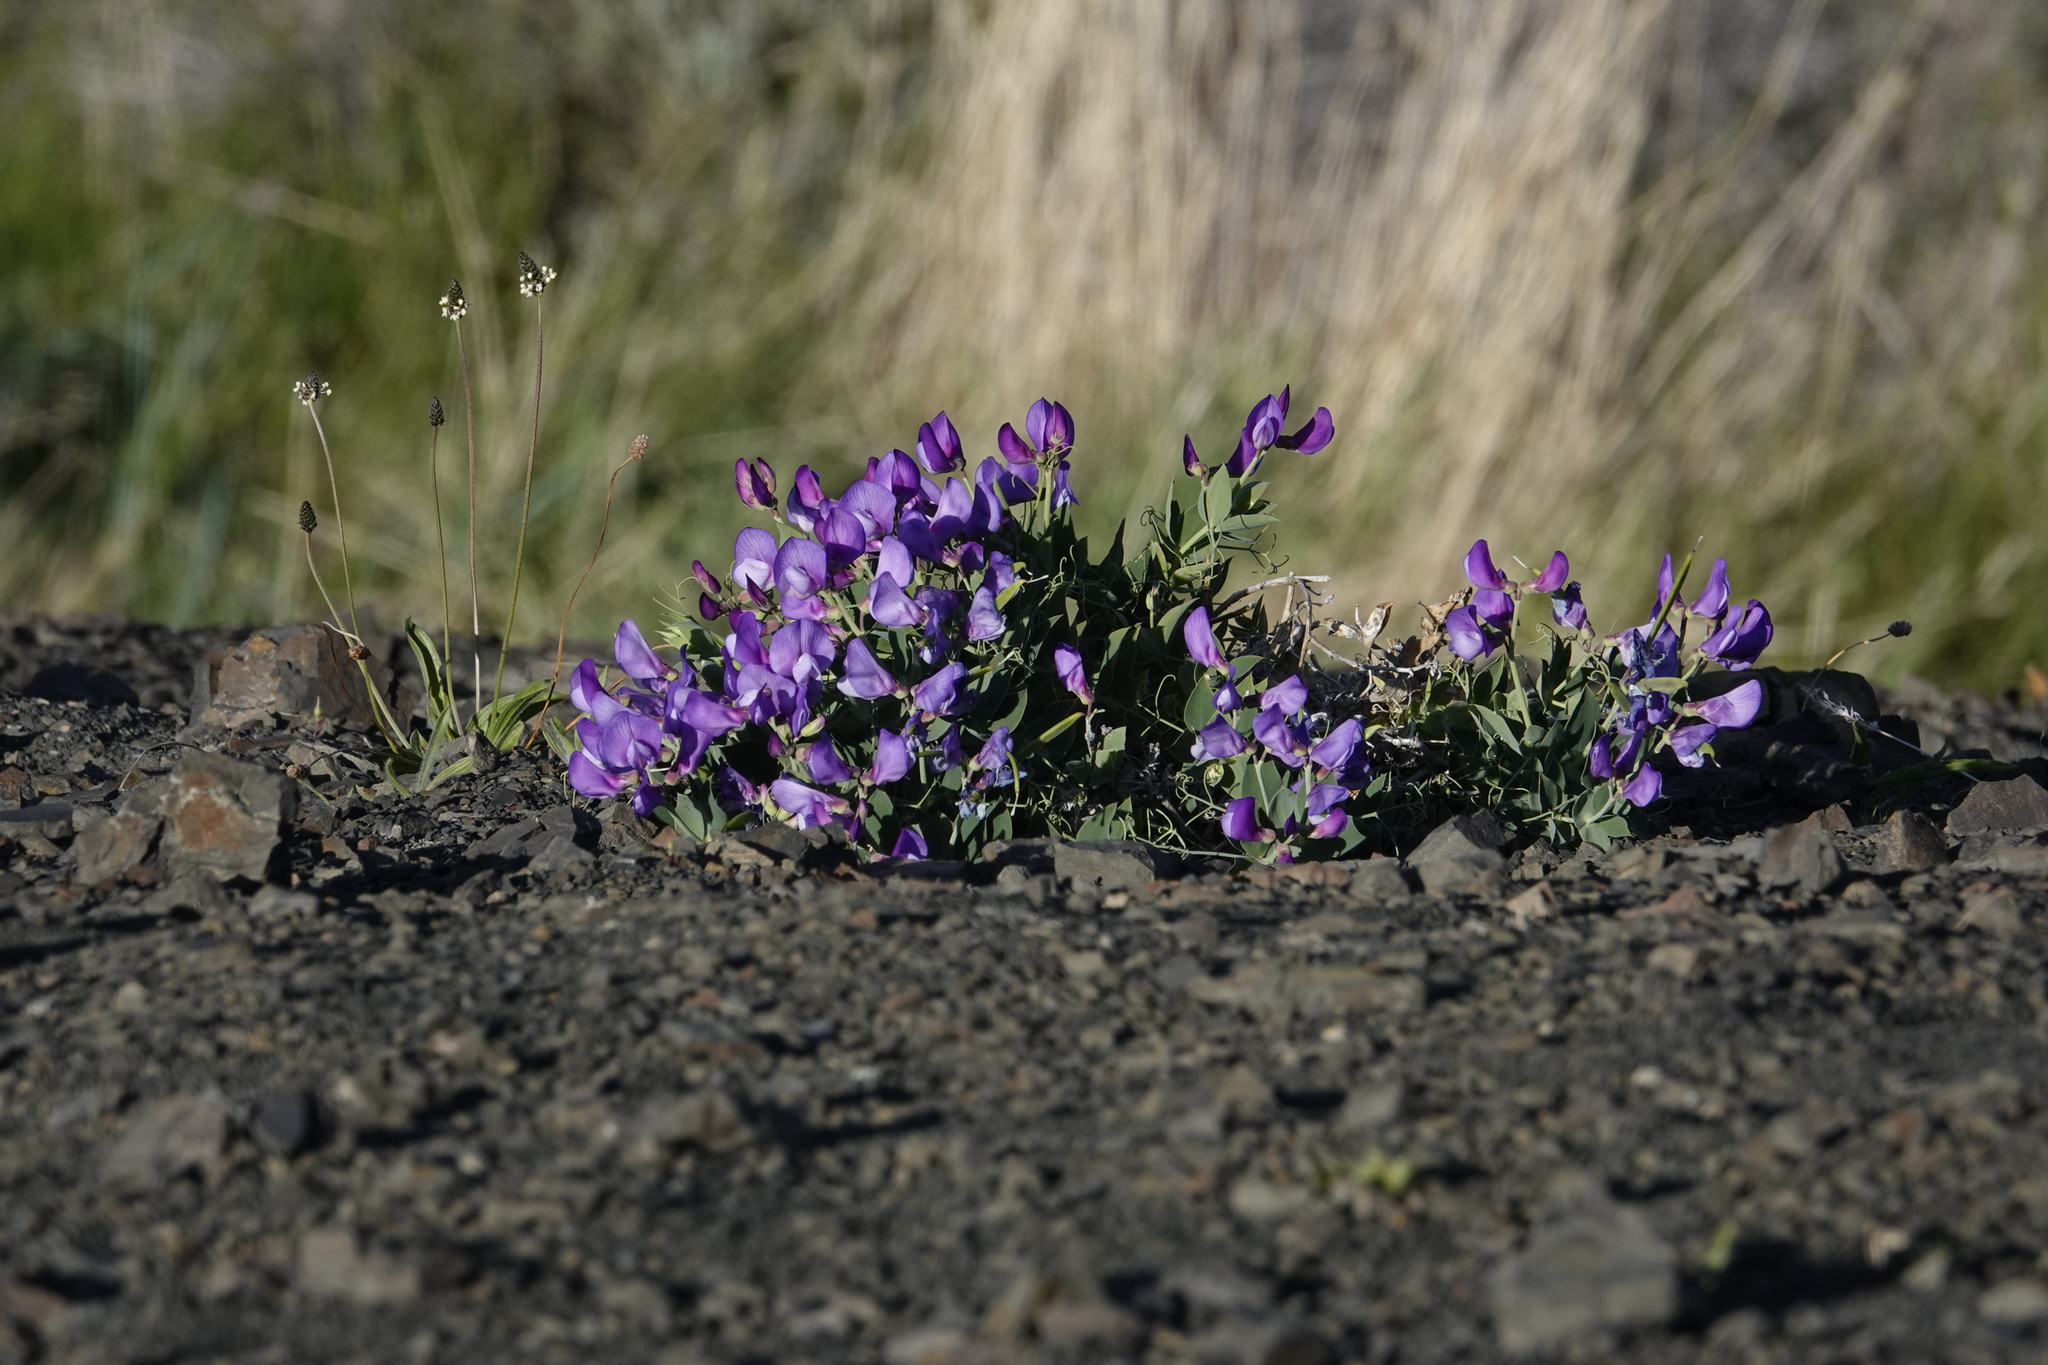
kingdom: Plantae
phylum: Tracheophyta
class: Magnoliopsida
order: Fabales
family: Fabaceae
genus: Lathyrus
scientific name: Lathyrus magellanicus
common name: Lord anson's pea
